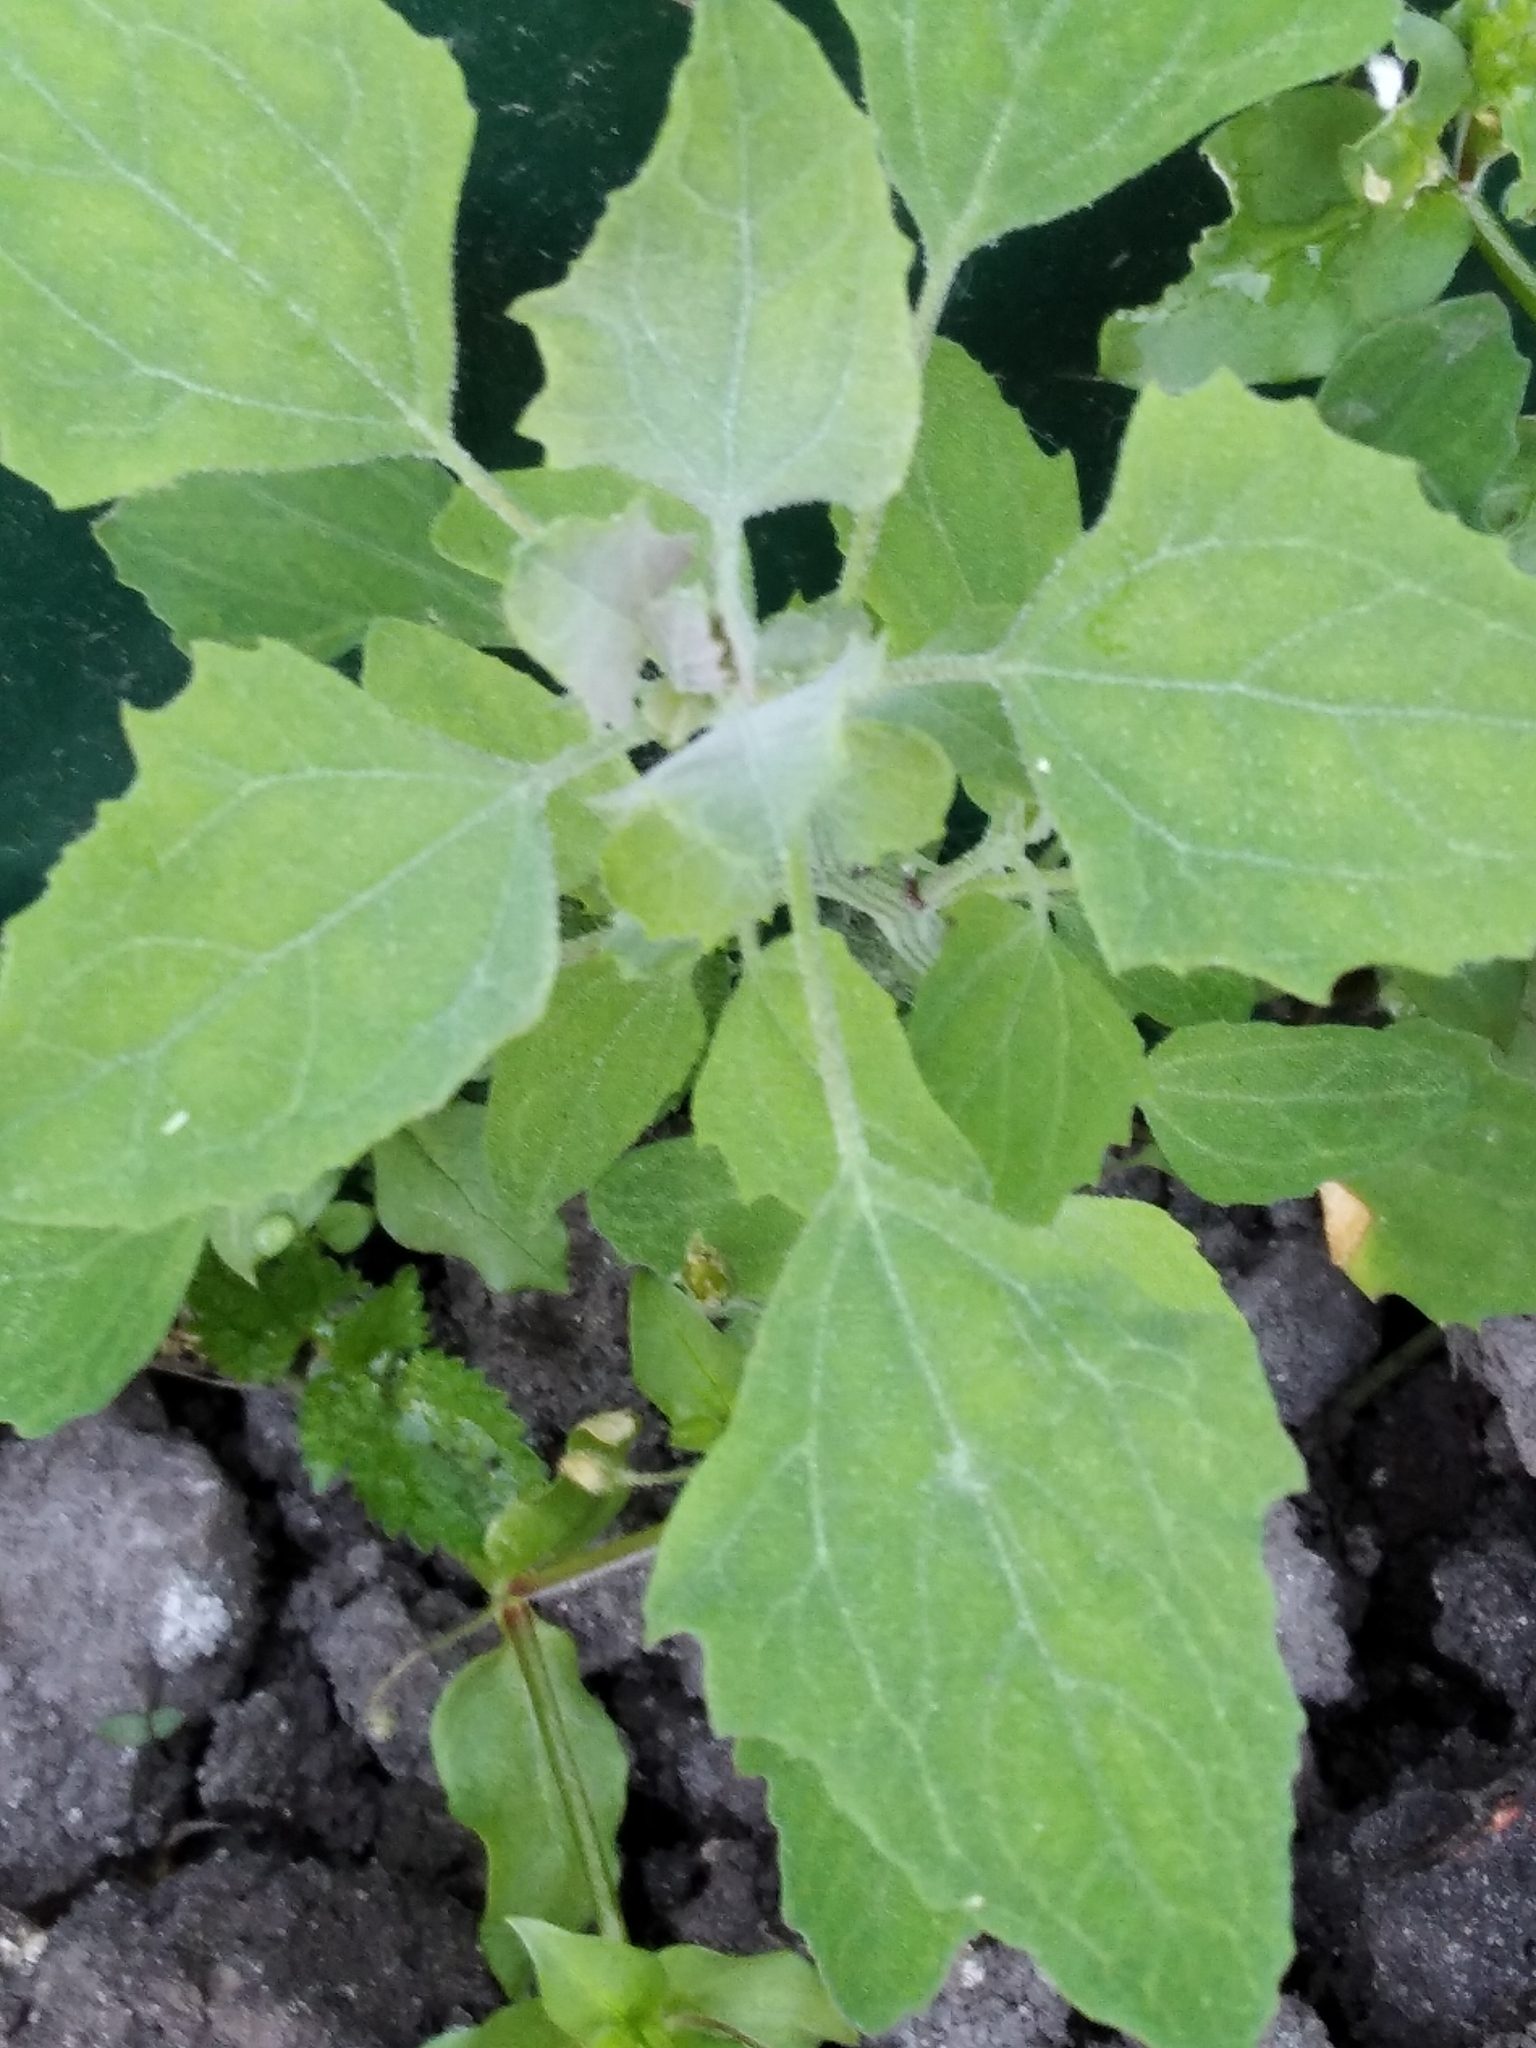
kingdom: Plantae
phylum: Tracheophyta
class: Magnoliopsida
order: Caryophyllales
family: Amaranthaceae
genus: Chenopodium
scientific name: Chenopodium album
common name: Fat-hen
